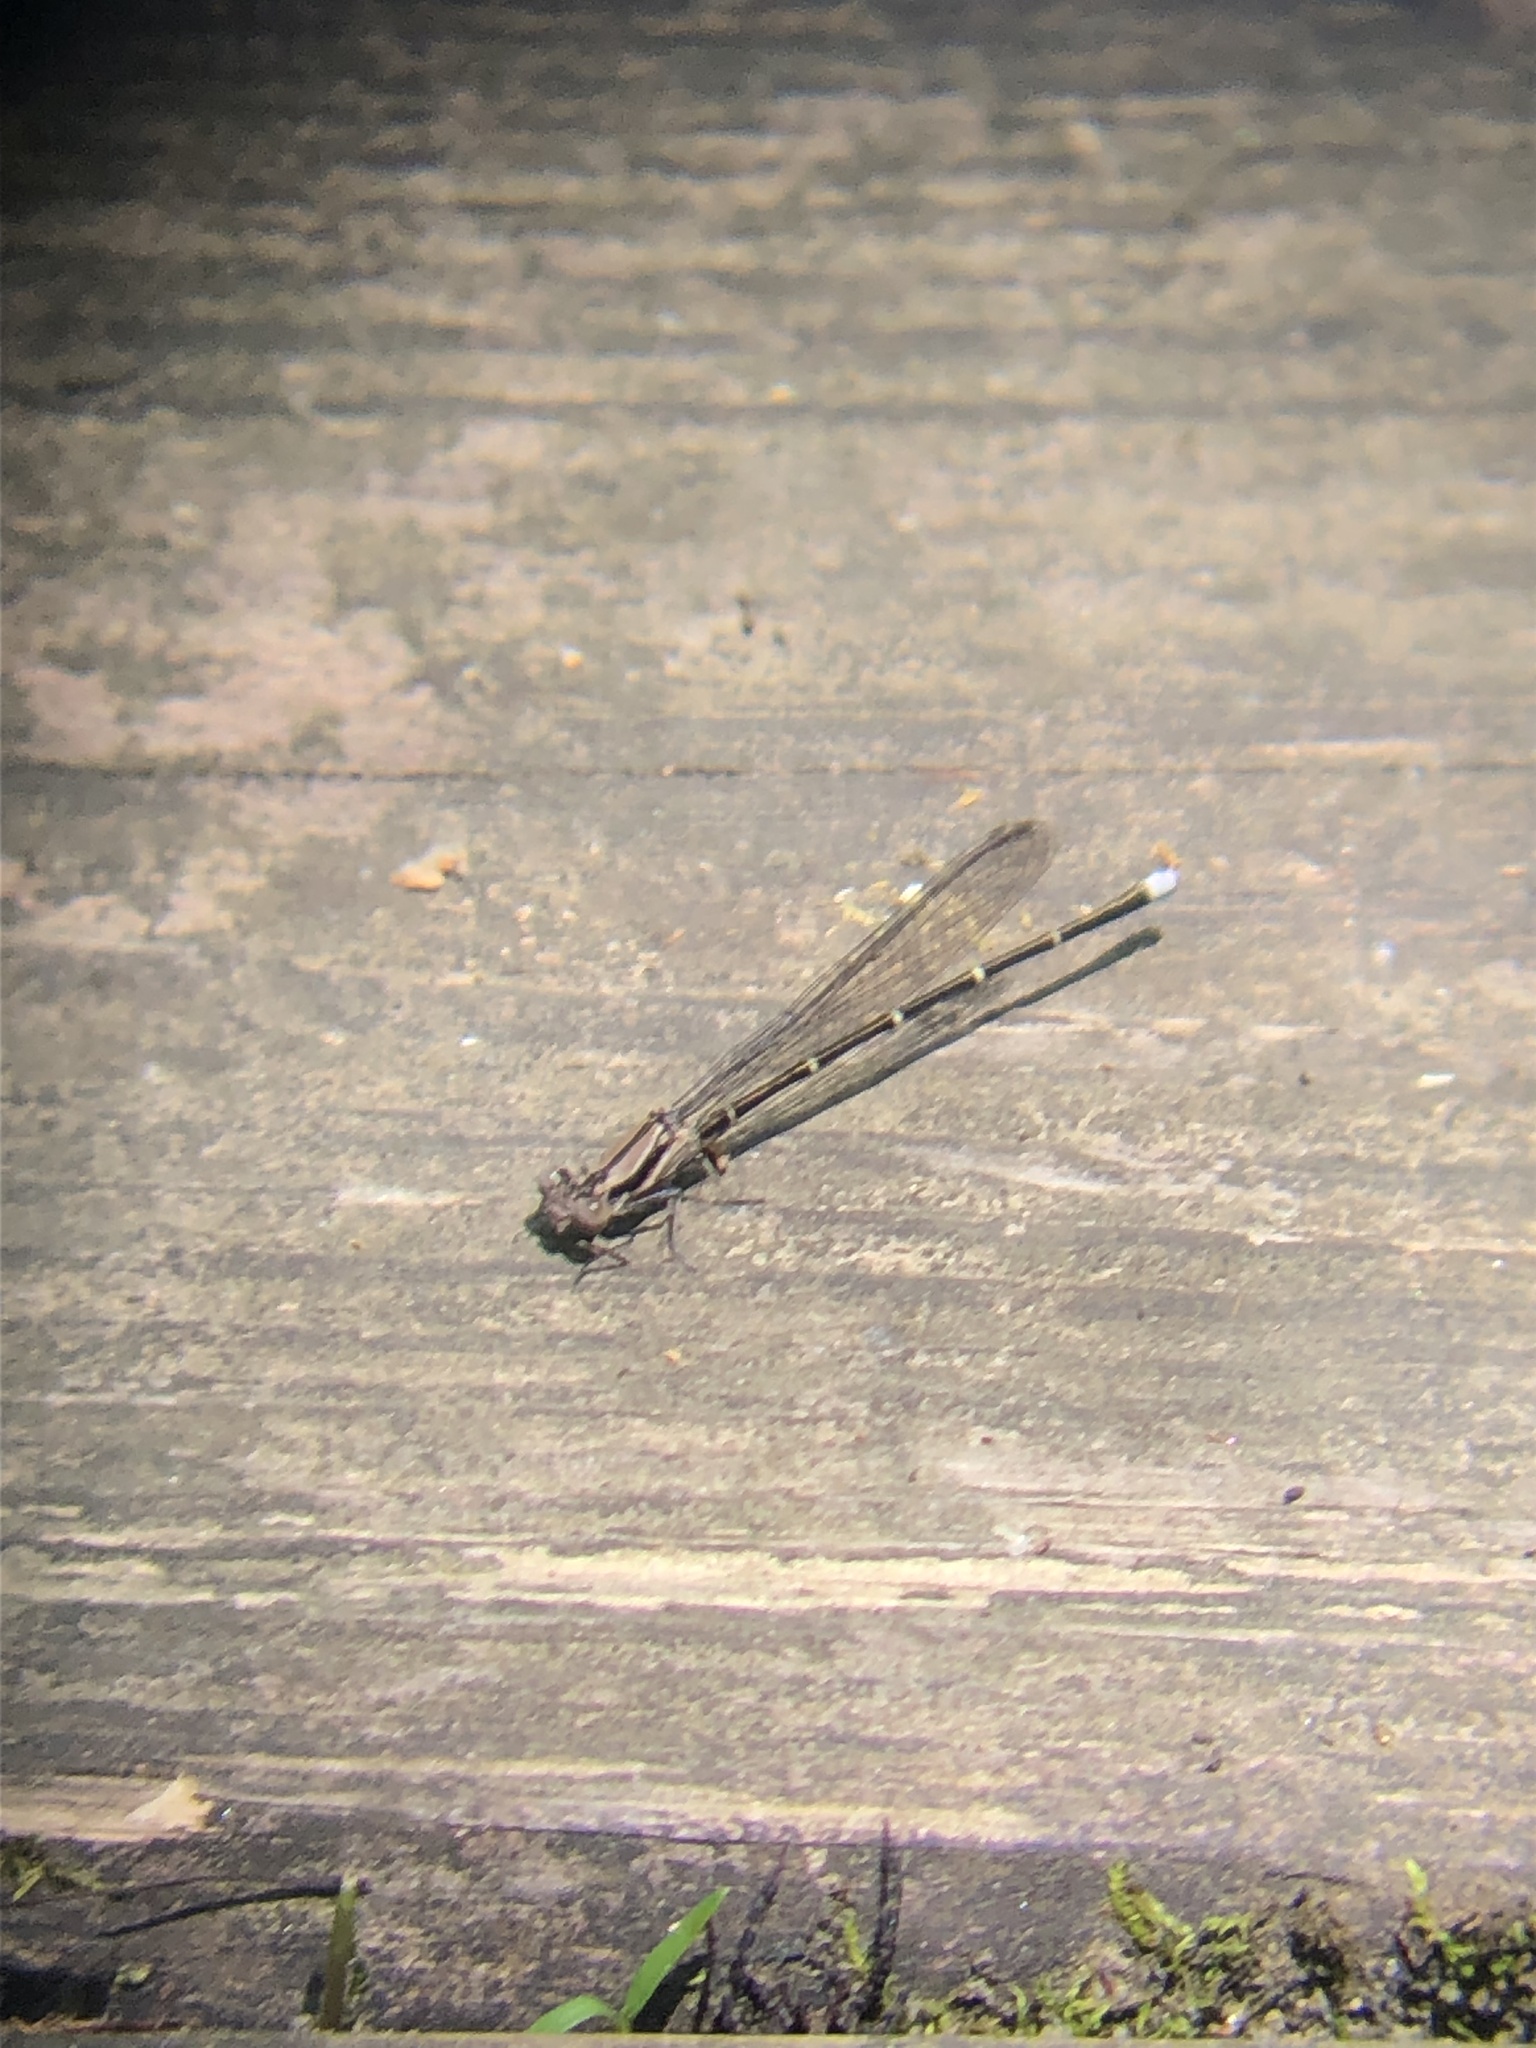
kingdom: Animalia
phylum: Arthropoda
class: Insecta
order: Odonata
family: Coenagrionidae
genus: Argia
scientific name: Argia tibialis
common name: Blue-tipped dancer
